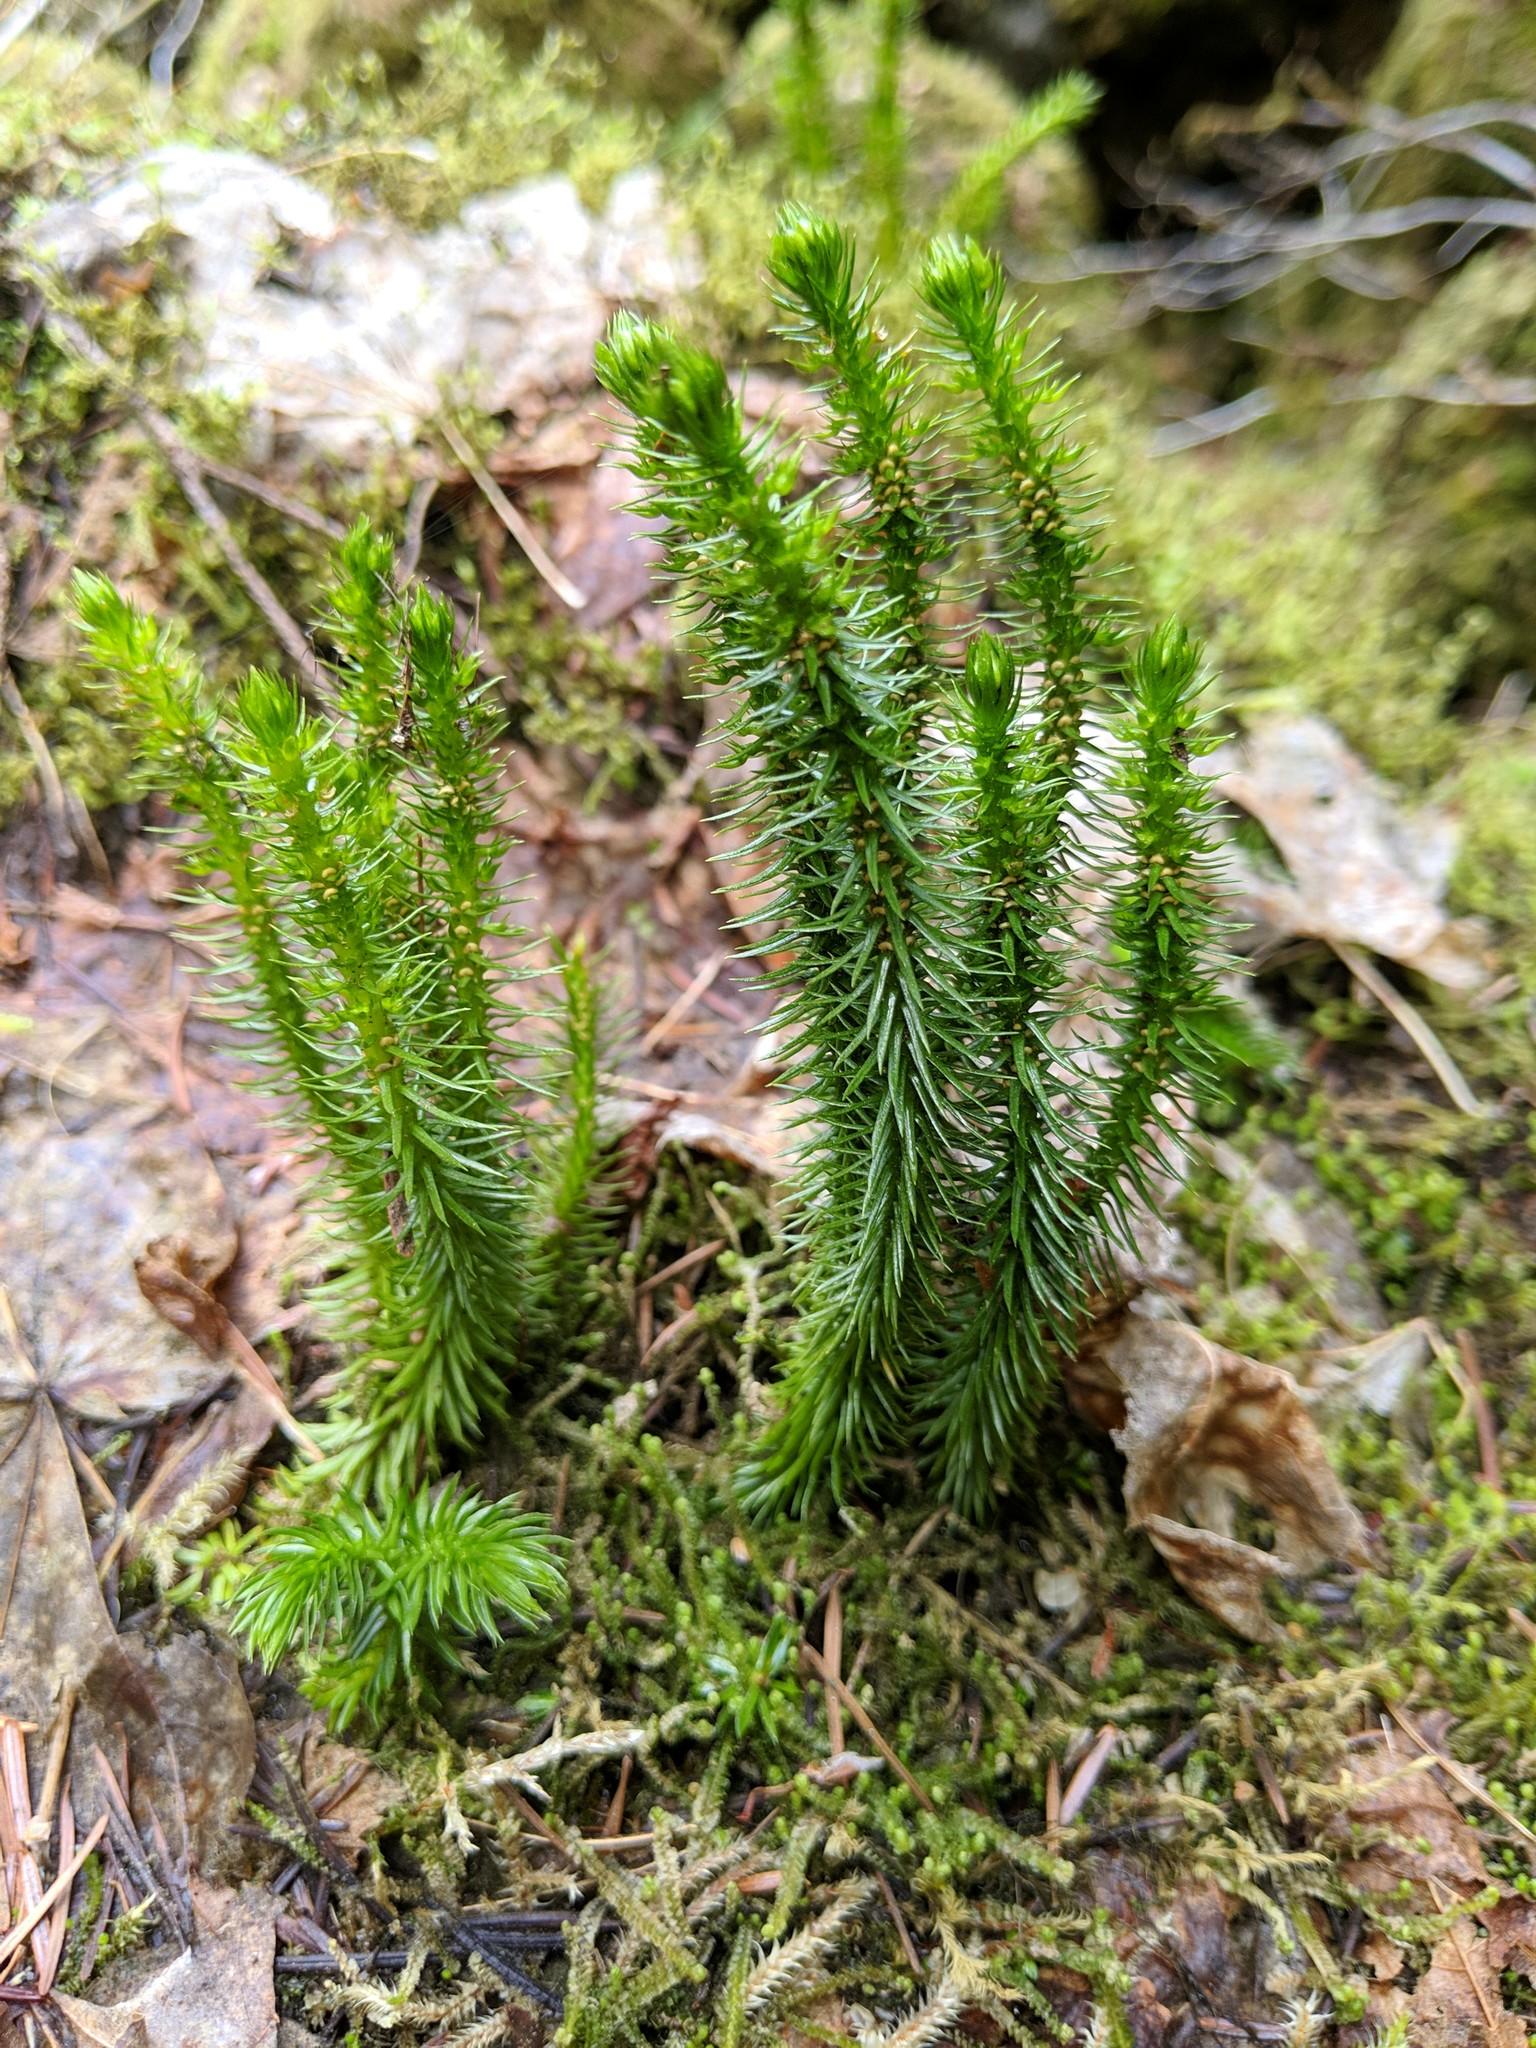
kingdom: Plantae
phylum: Tracheophyta
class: Lycopodiopsida
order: Lycopodiales
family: Lycopodiaceae
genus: Huperzia
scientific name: Huperzia miyoshiana
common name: Chinese clubmoss
